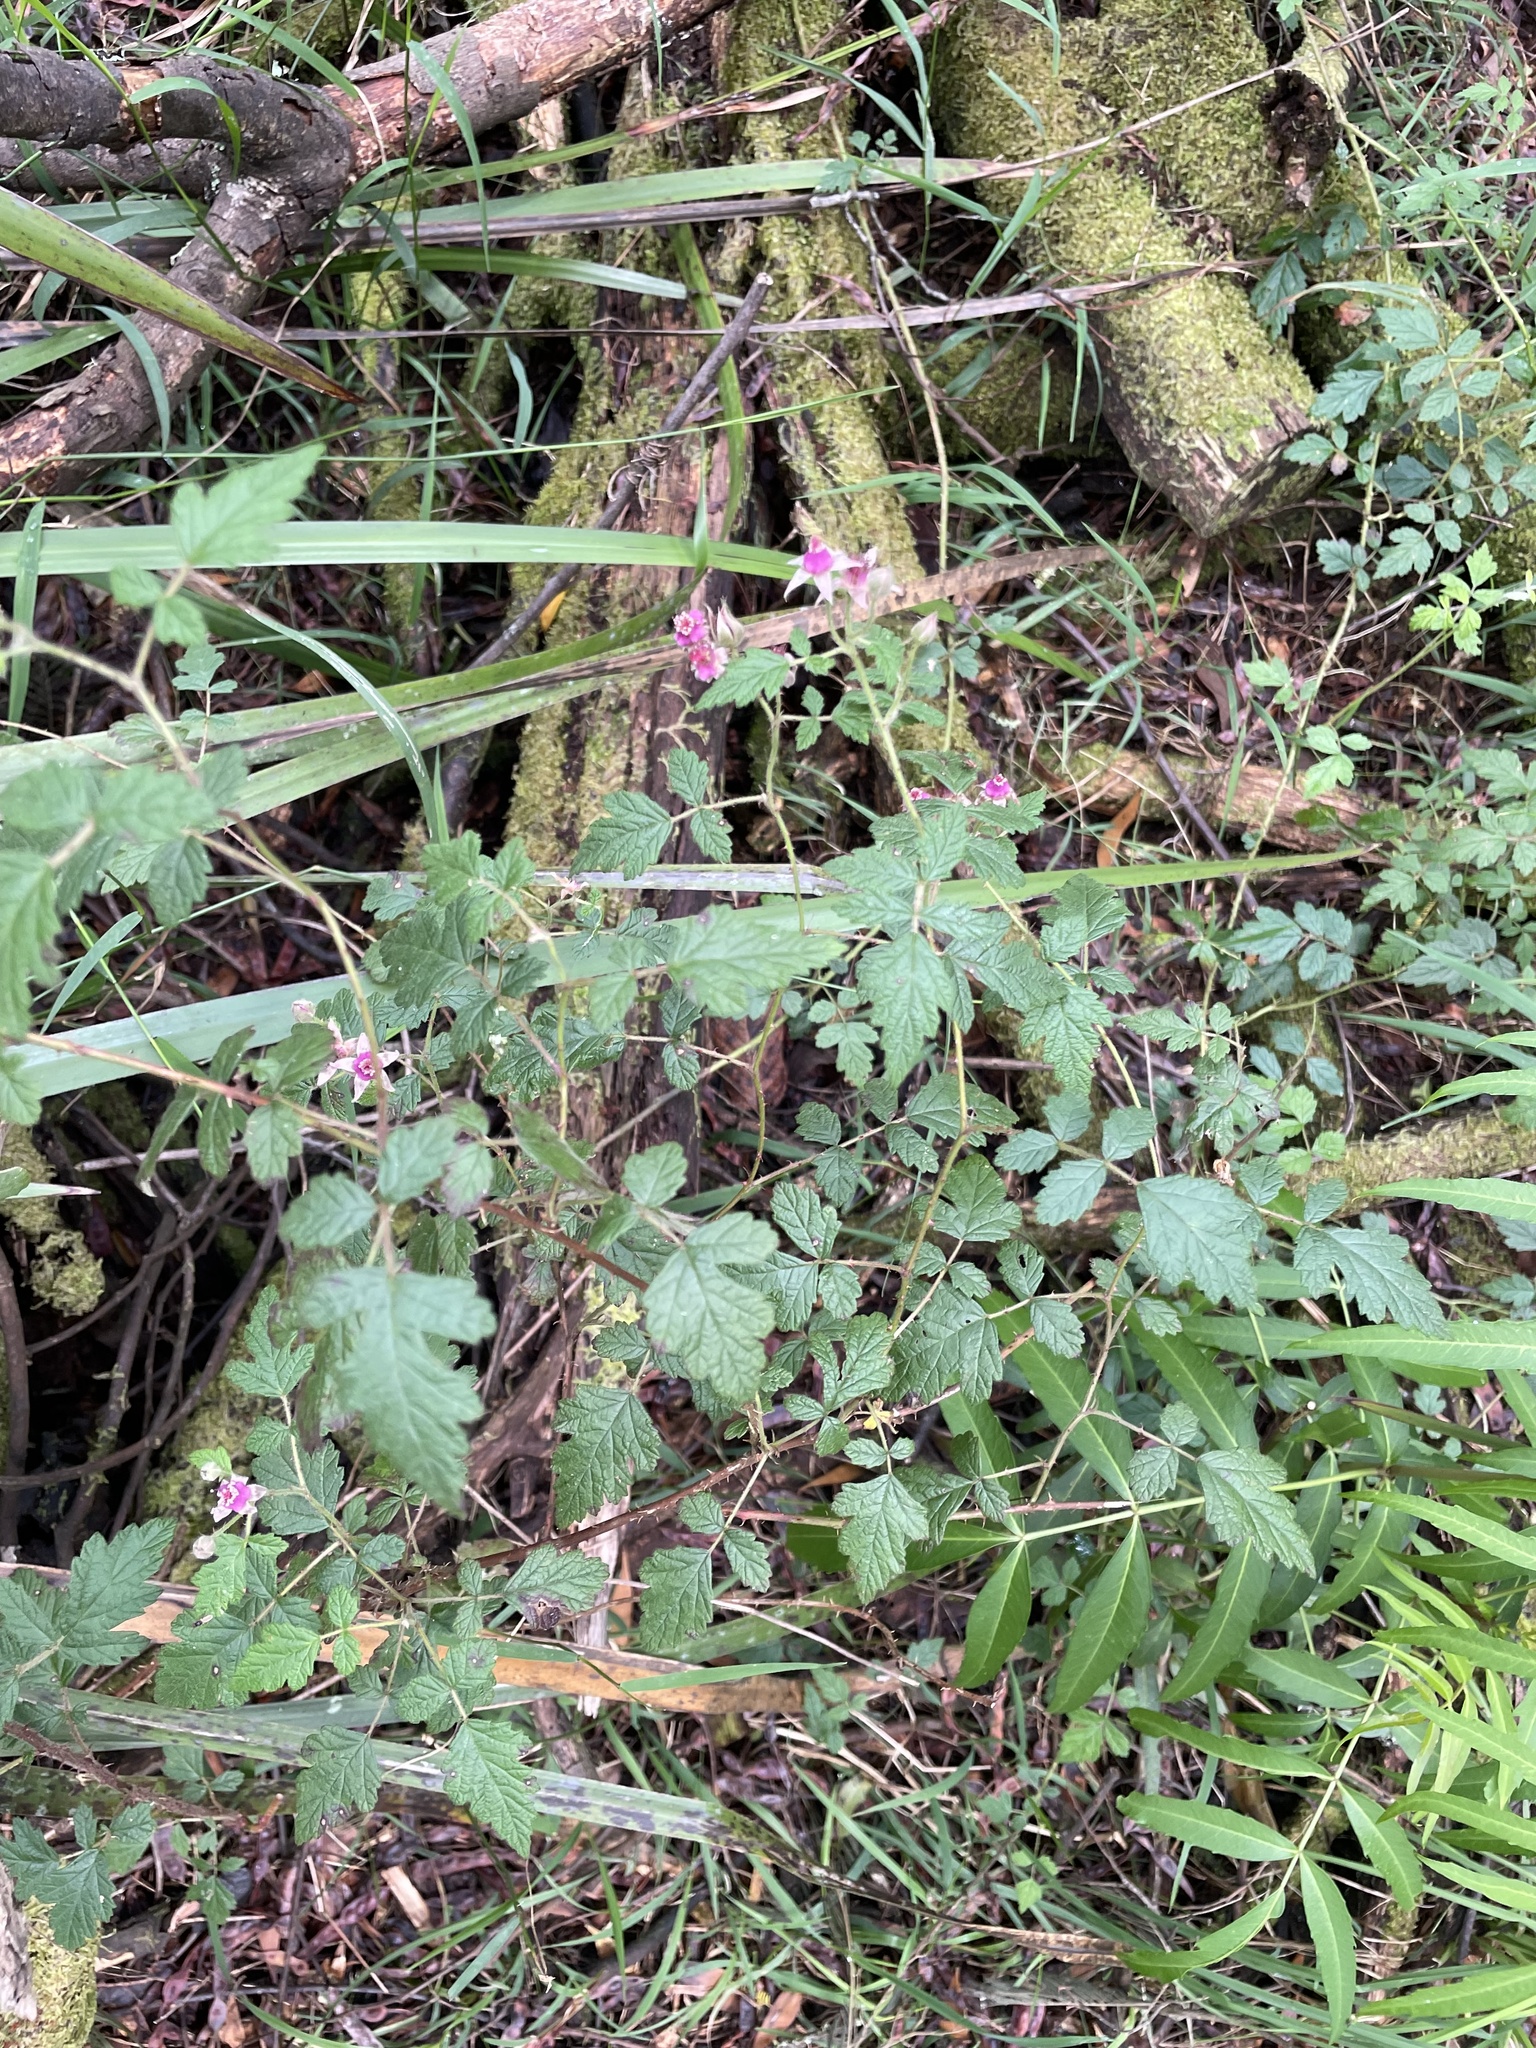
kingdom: Plantae
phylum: Tracheophyta
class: Magnoliopsida
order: Rosales
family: Rosaceae
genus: Rubus
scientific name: Rubus parvifolius
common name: Threeleaf blackberry
